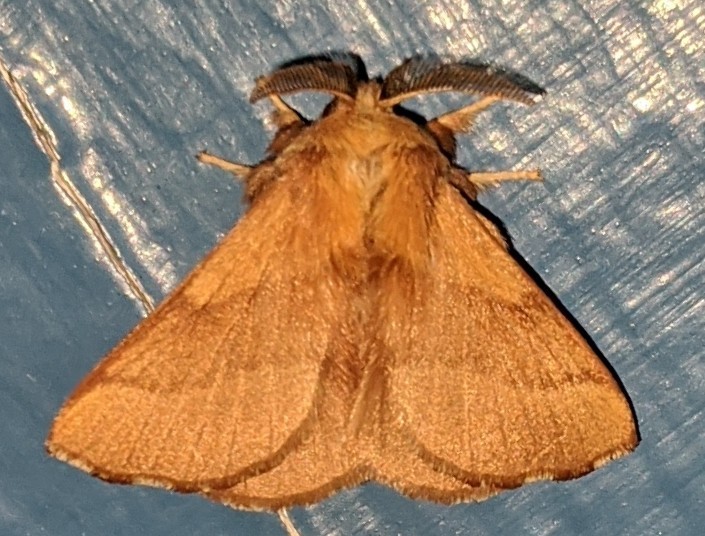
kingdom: Animalia
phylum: Arthropoda
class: Insecta
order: Lepidoptera
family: Lasiocampidae
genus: Malacosoma
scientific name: Malacosoma disstria
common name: Forest tent caterpillar
